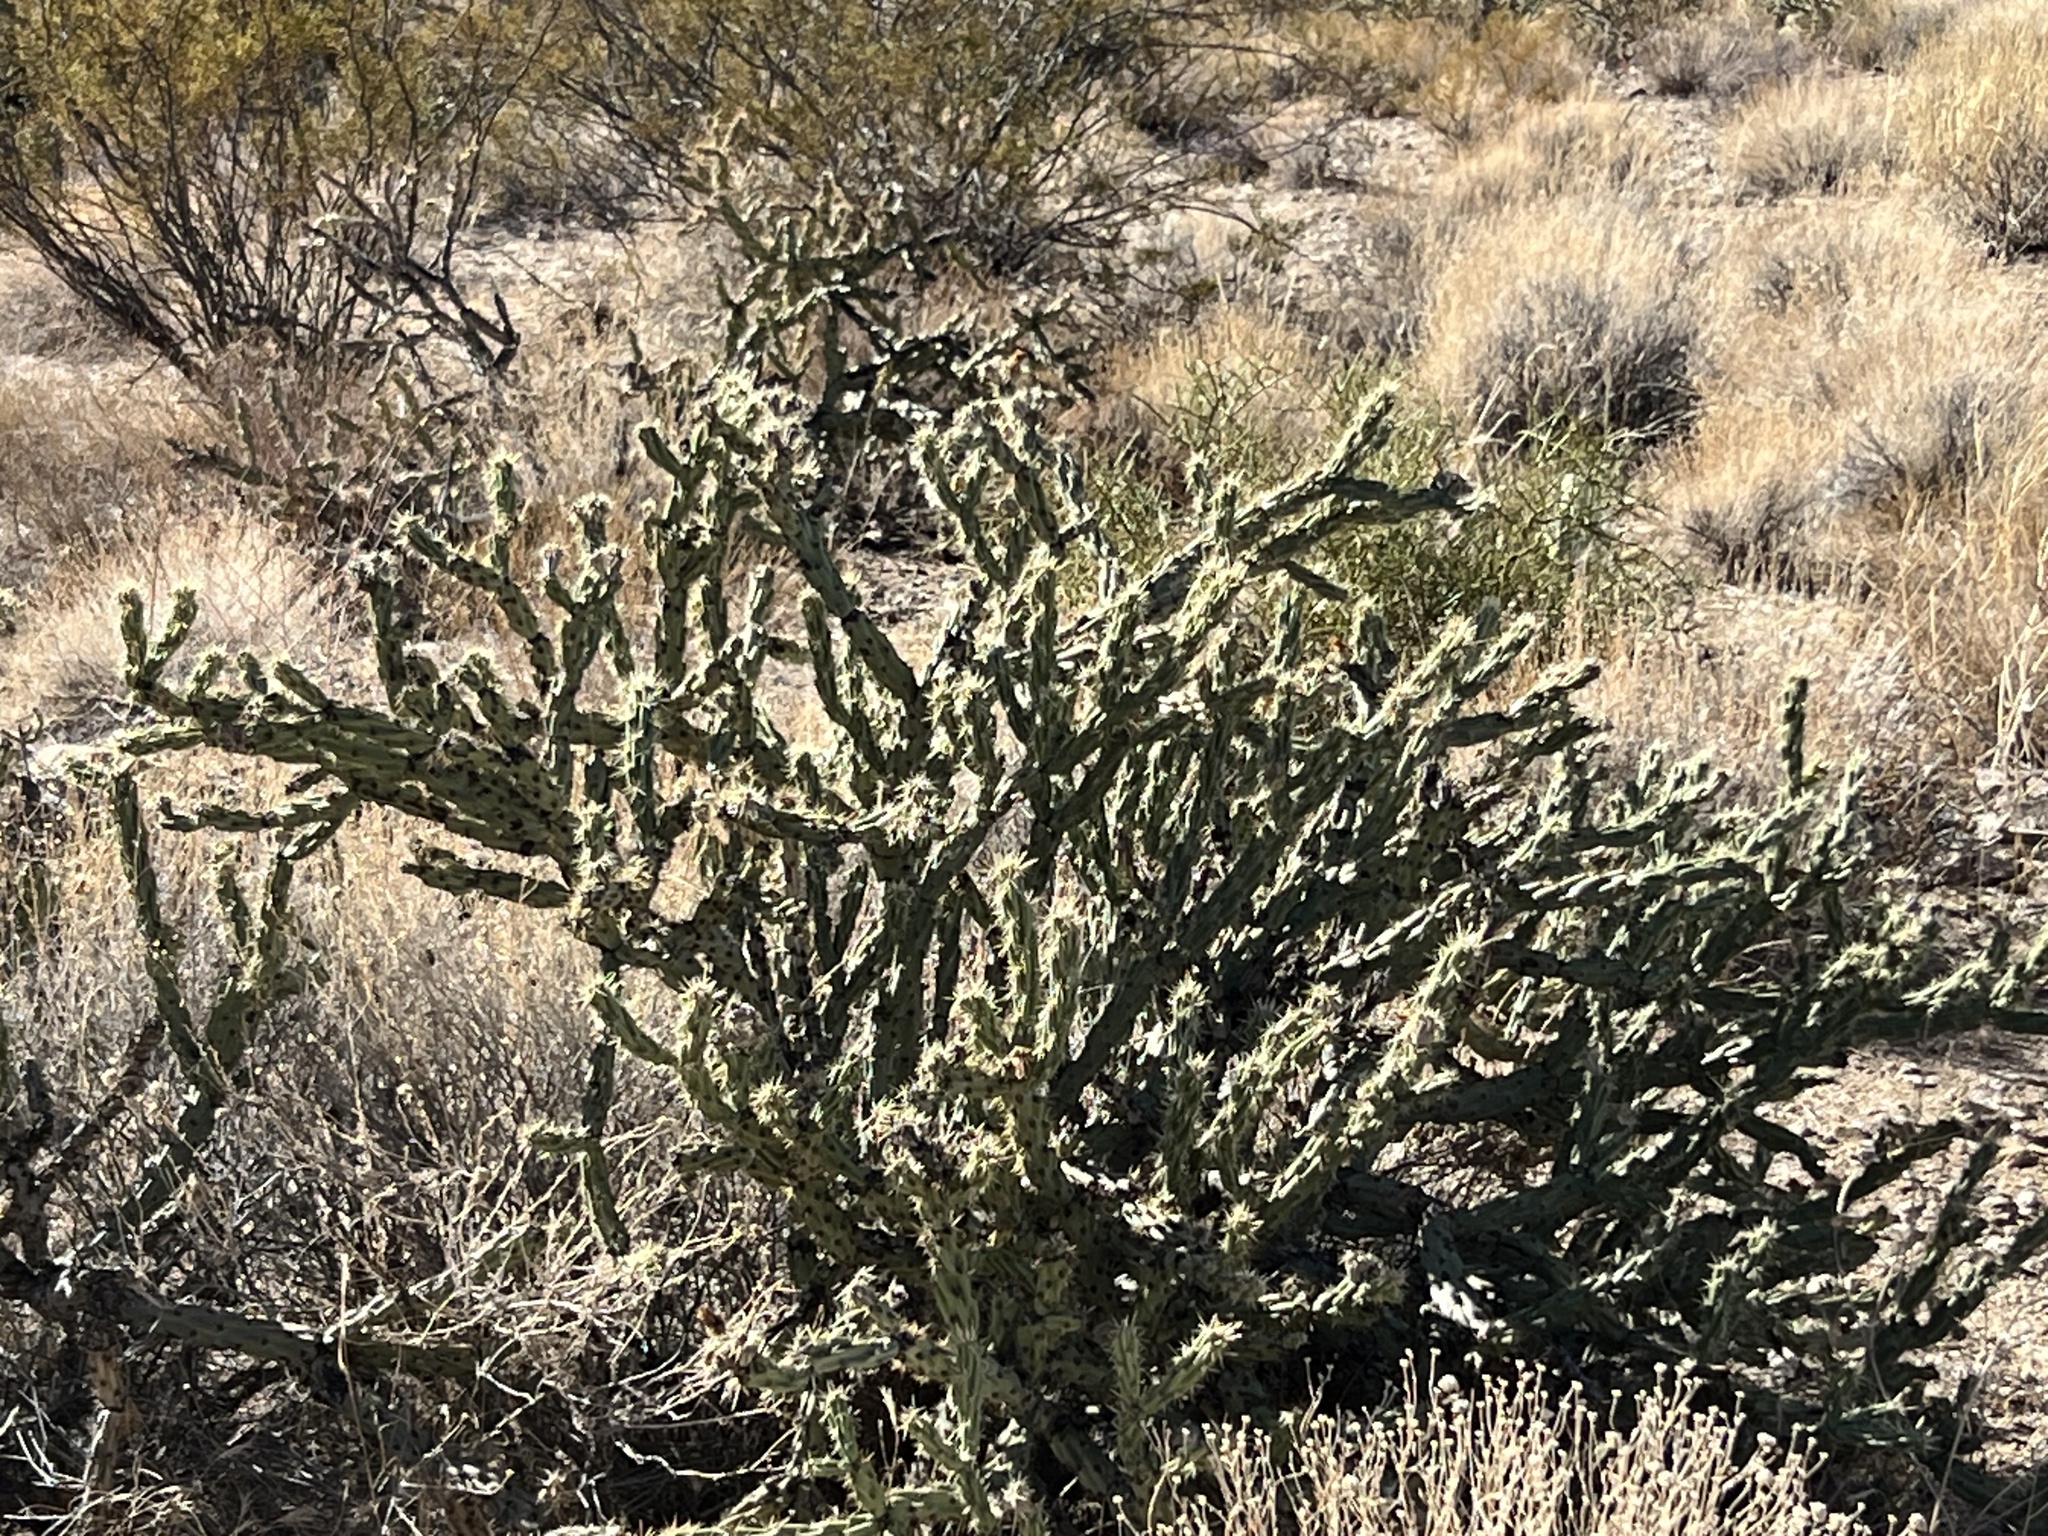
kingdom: Plantae
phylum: Tracheophyta
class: Magnoliopsida
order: Caryophyllales
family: Cactaceae
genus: Cylindropuntia
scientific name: Cylindropuntia acanthocarpa
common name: Buckhorn cholla
